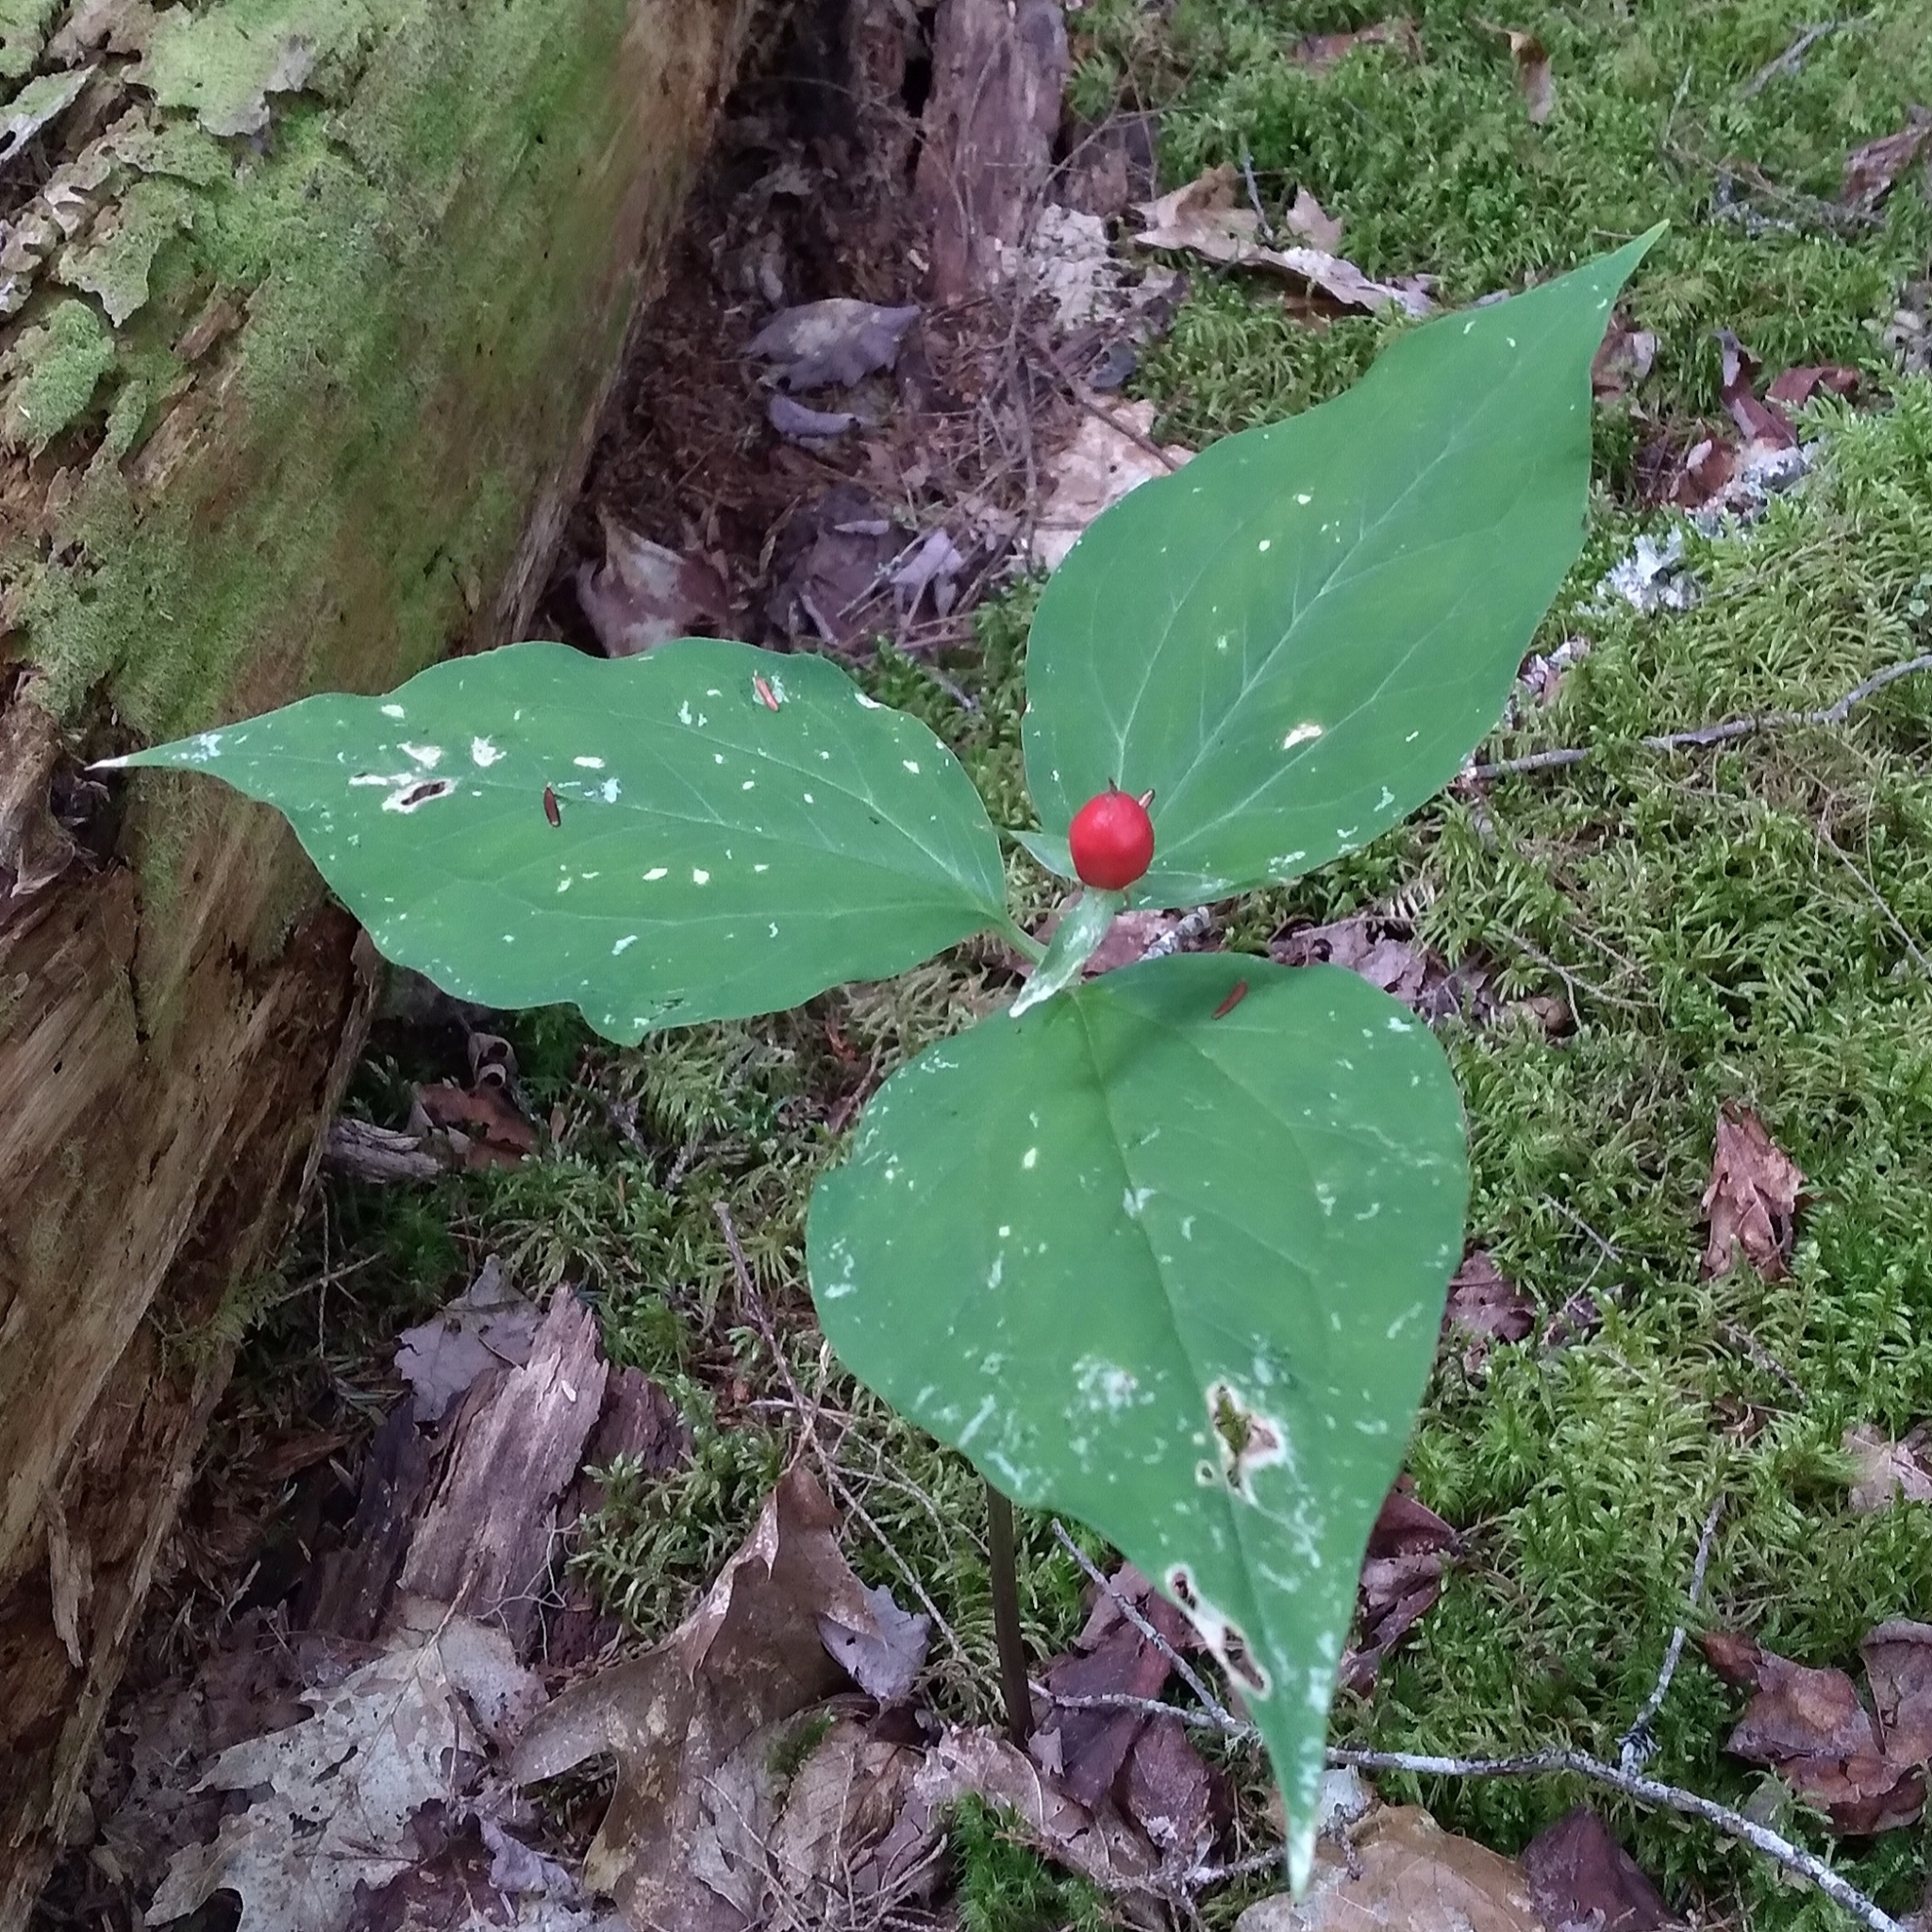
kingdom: Plantae
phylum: Tracheophyta
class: Liliopsida
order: Liliales
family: Melanthiaceae
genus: Trillium
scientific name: Trillium undulatum
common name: Paint trillium
